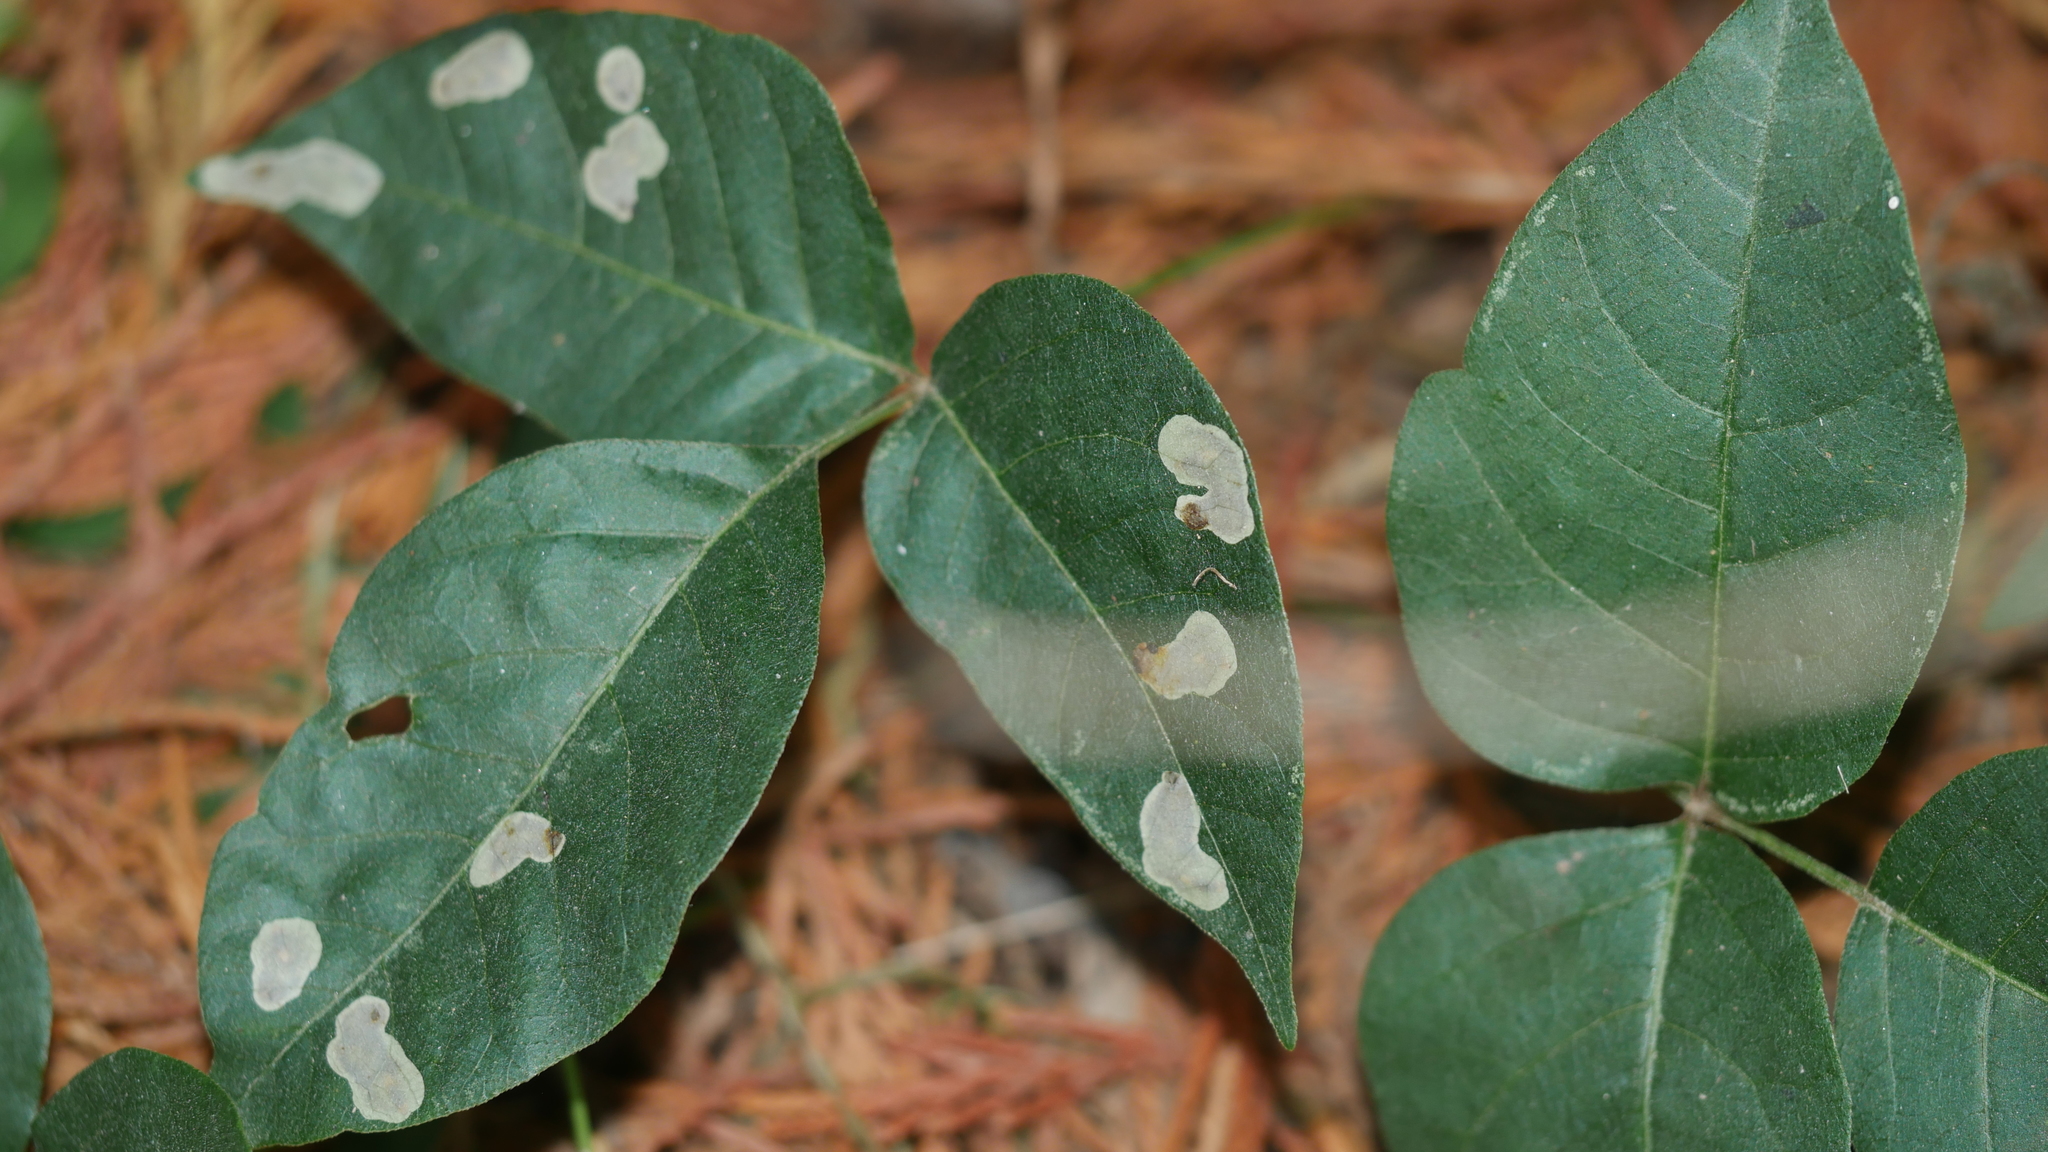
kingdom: Animalia
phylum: Arthropoda
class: Insecta
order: Lepidoptera
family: Gracillariidae
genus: Cameraria
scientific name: Cameraria guttifinitella
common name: Poison ivy leaf-miner moth
